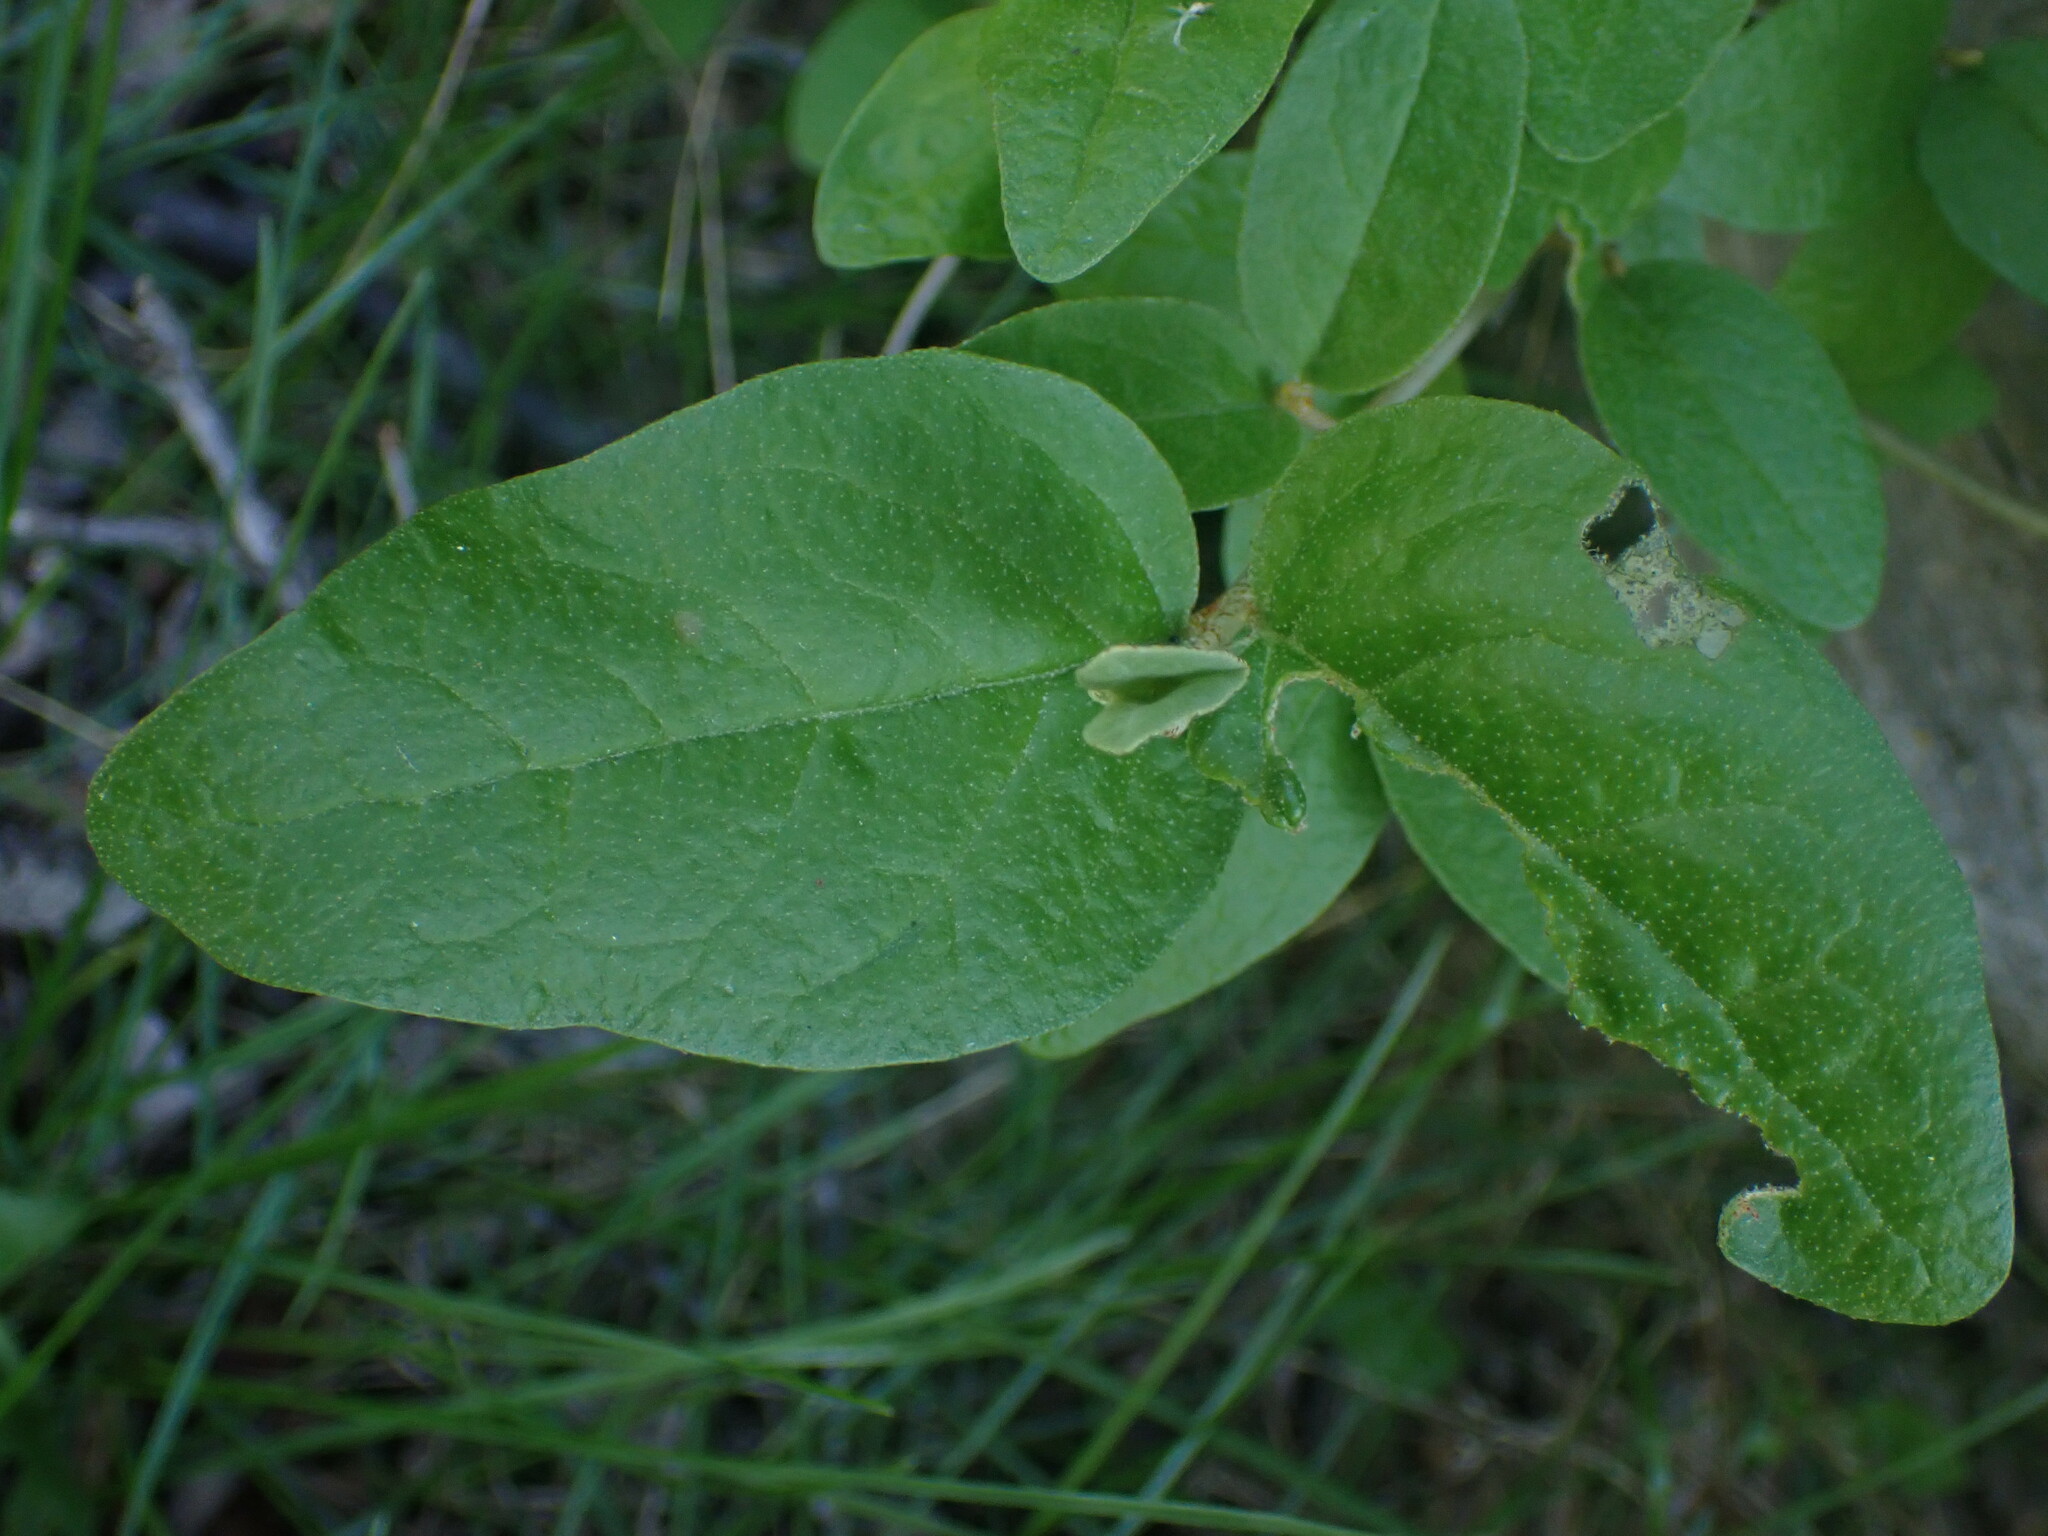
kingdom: Plantae
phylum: Tracheophyta
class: Magnoliopsida
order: Rosales
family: Elaeagnaceae
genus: Shepherdia
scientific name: Shepherdia canadensis
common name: Soapberry
